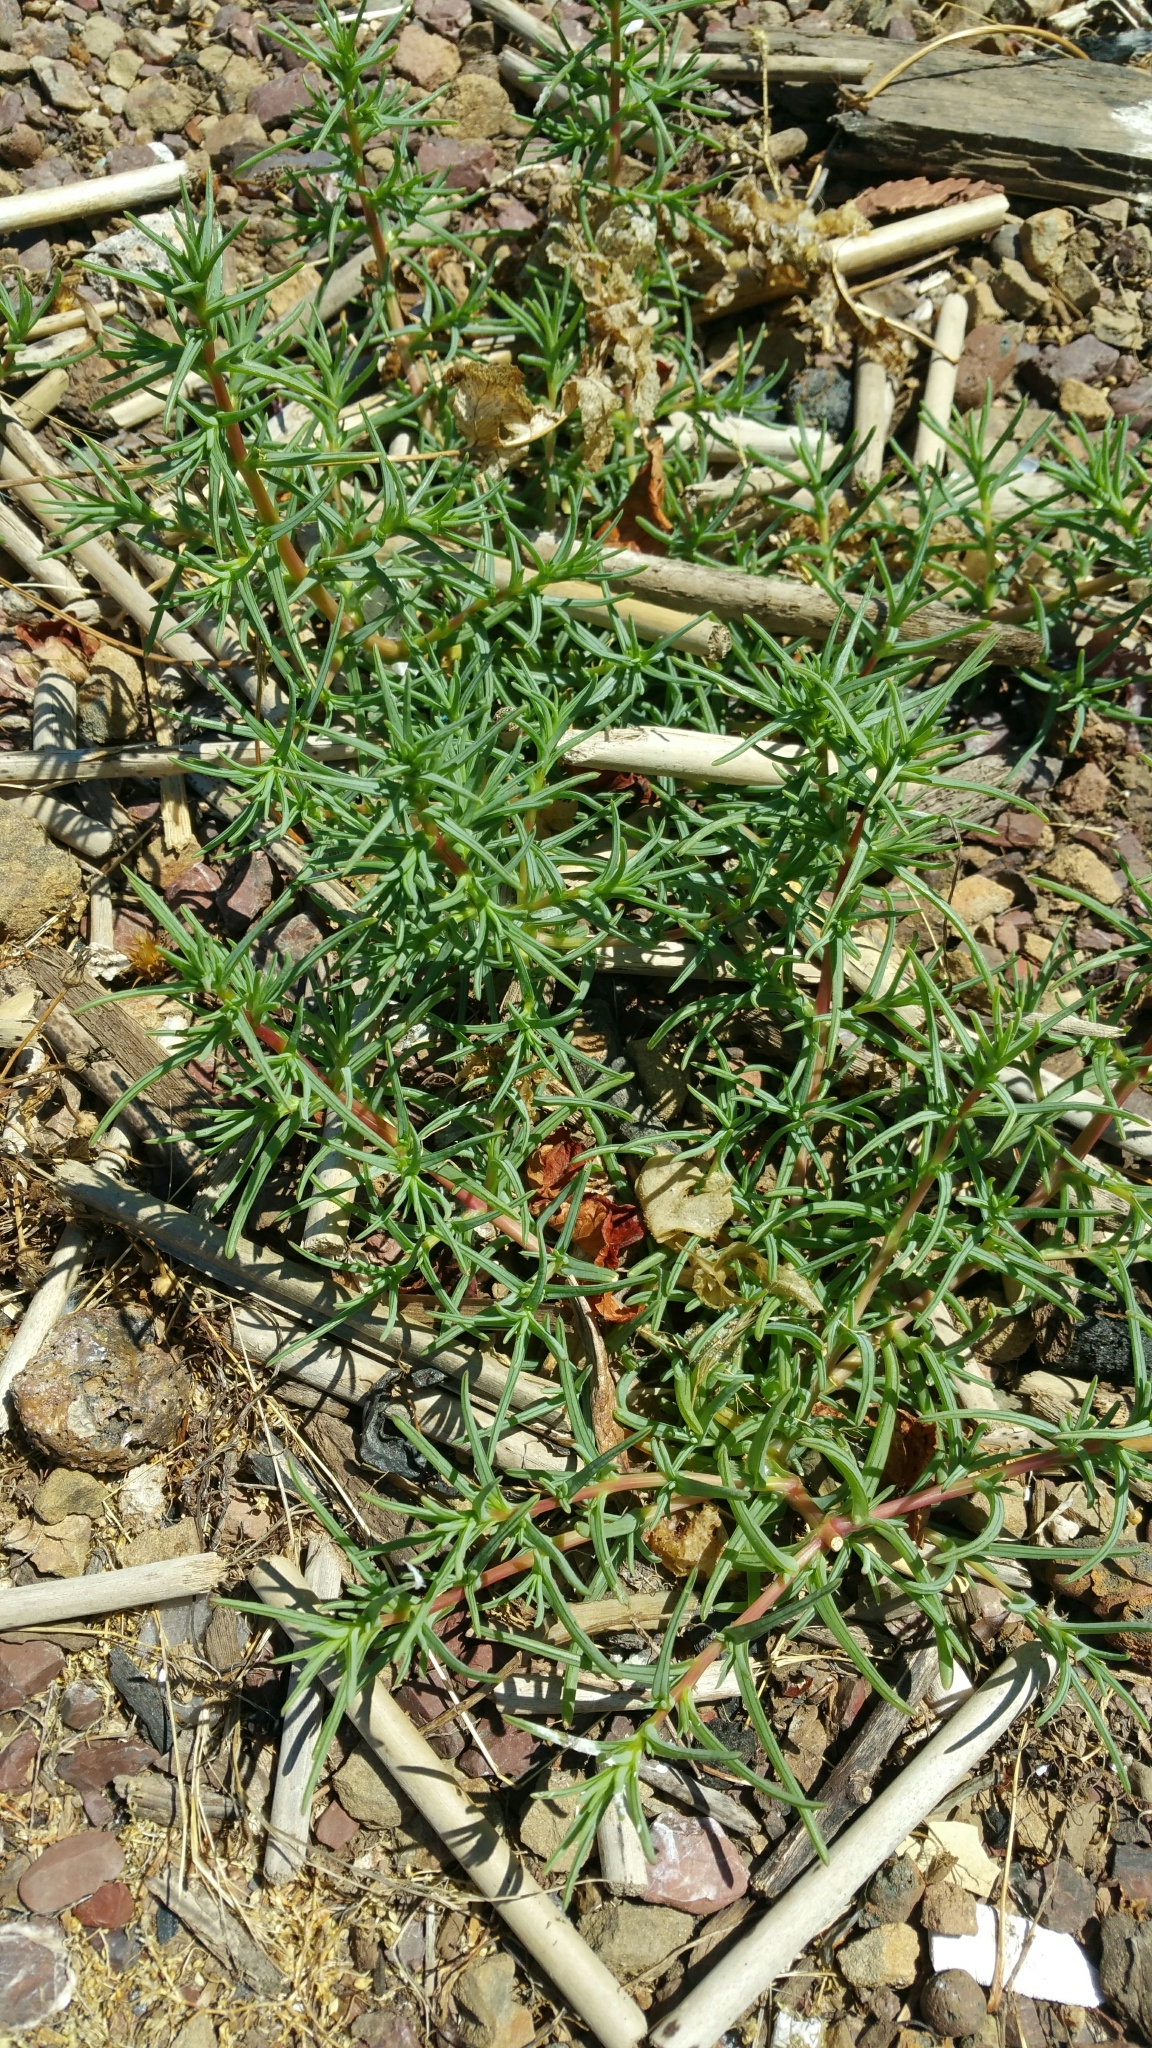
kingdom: Plantae
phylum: Tracheophyta
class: Magnoliopsida
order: Caryophyllales
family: Amaranthaceae
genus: Salsola
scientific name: Salsola soda
